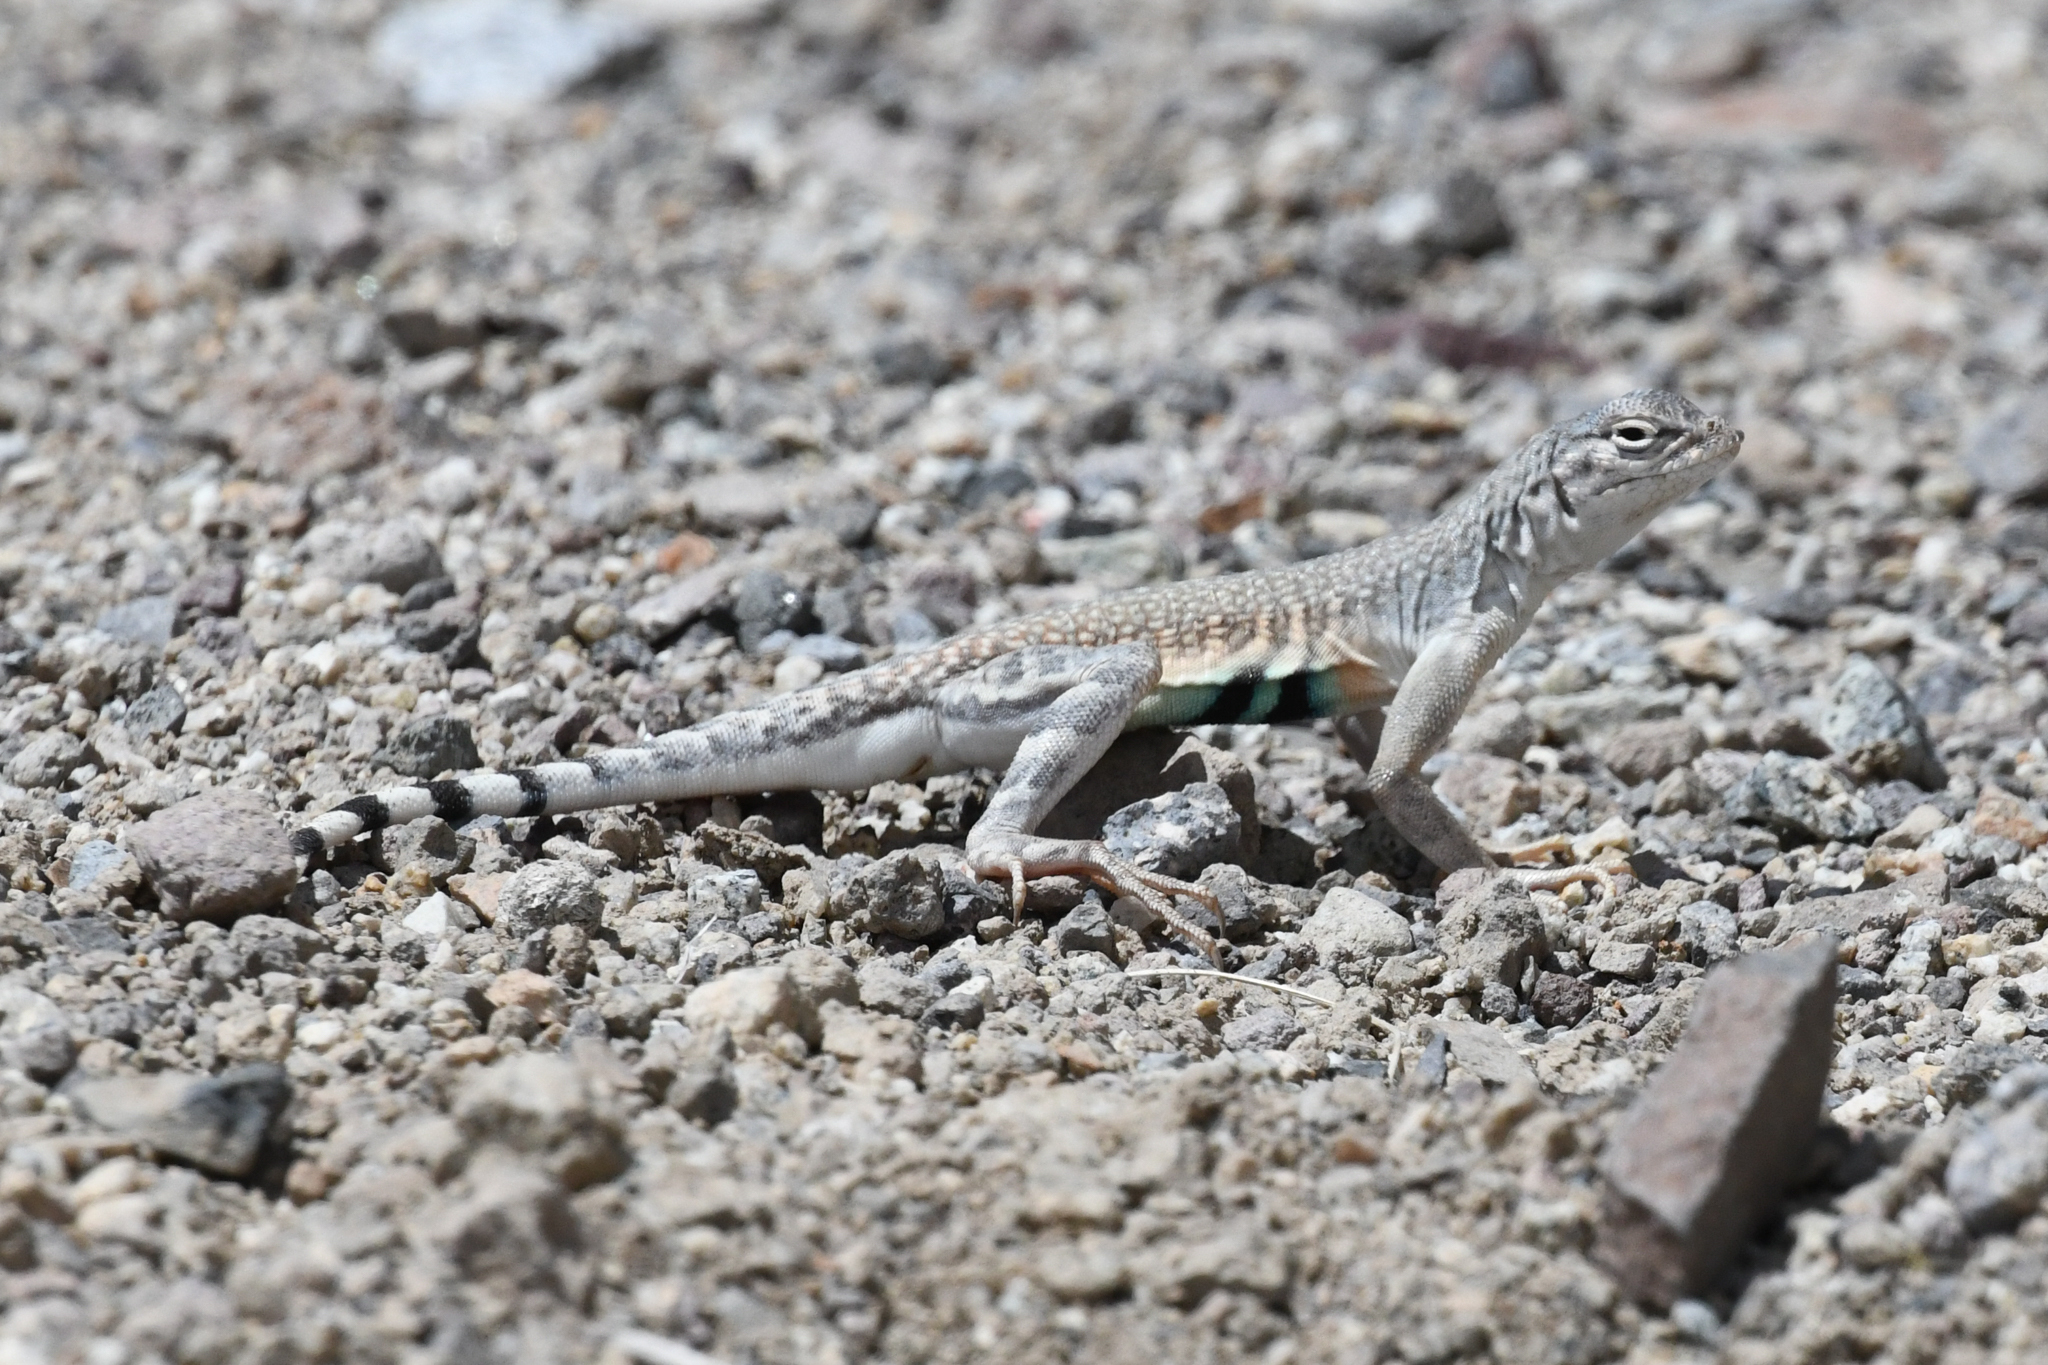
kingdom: Animalia
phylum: Chordata
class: Squamata
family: Phrynosomatidae
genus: Callisaurus
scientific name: Callisaurus draconoides
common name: Zebra-tailed lizard
